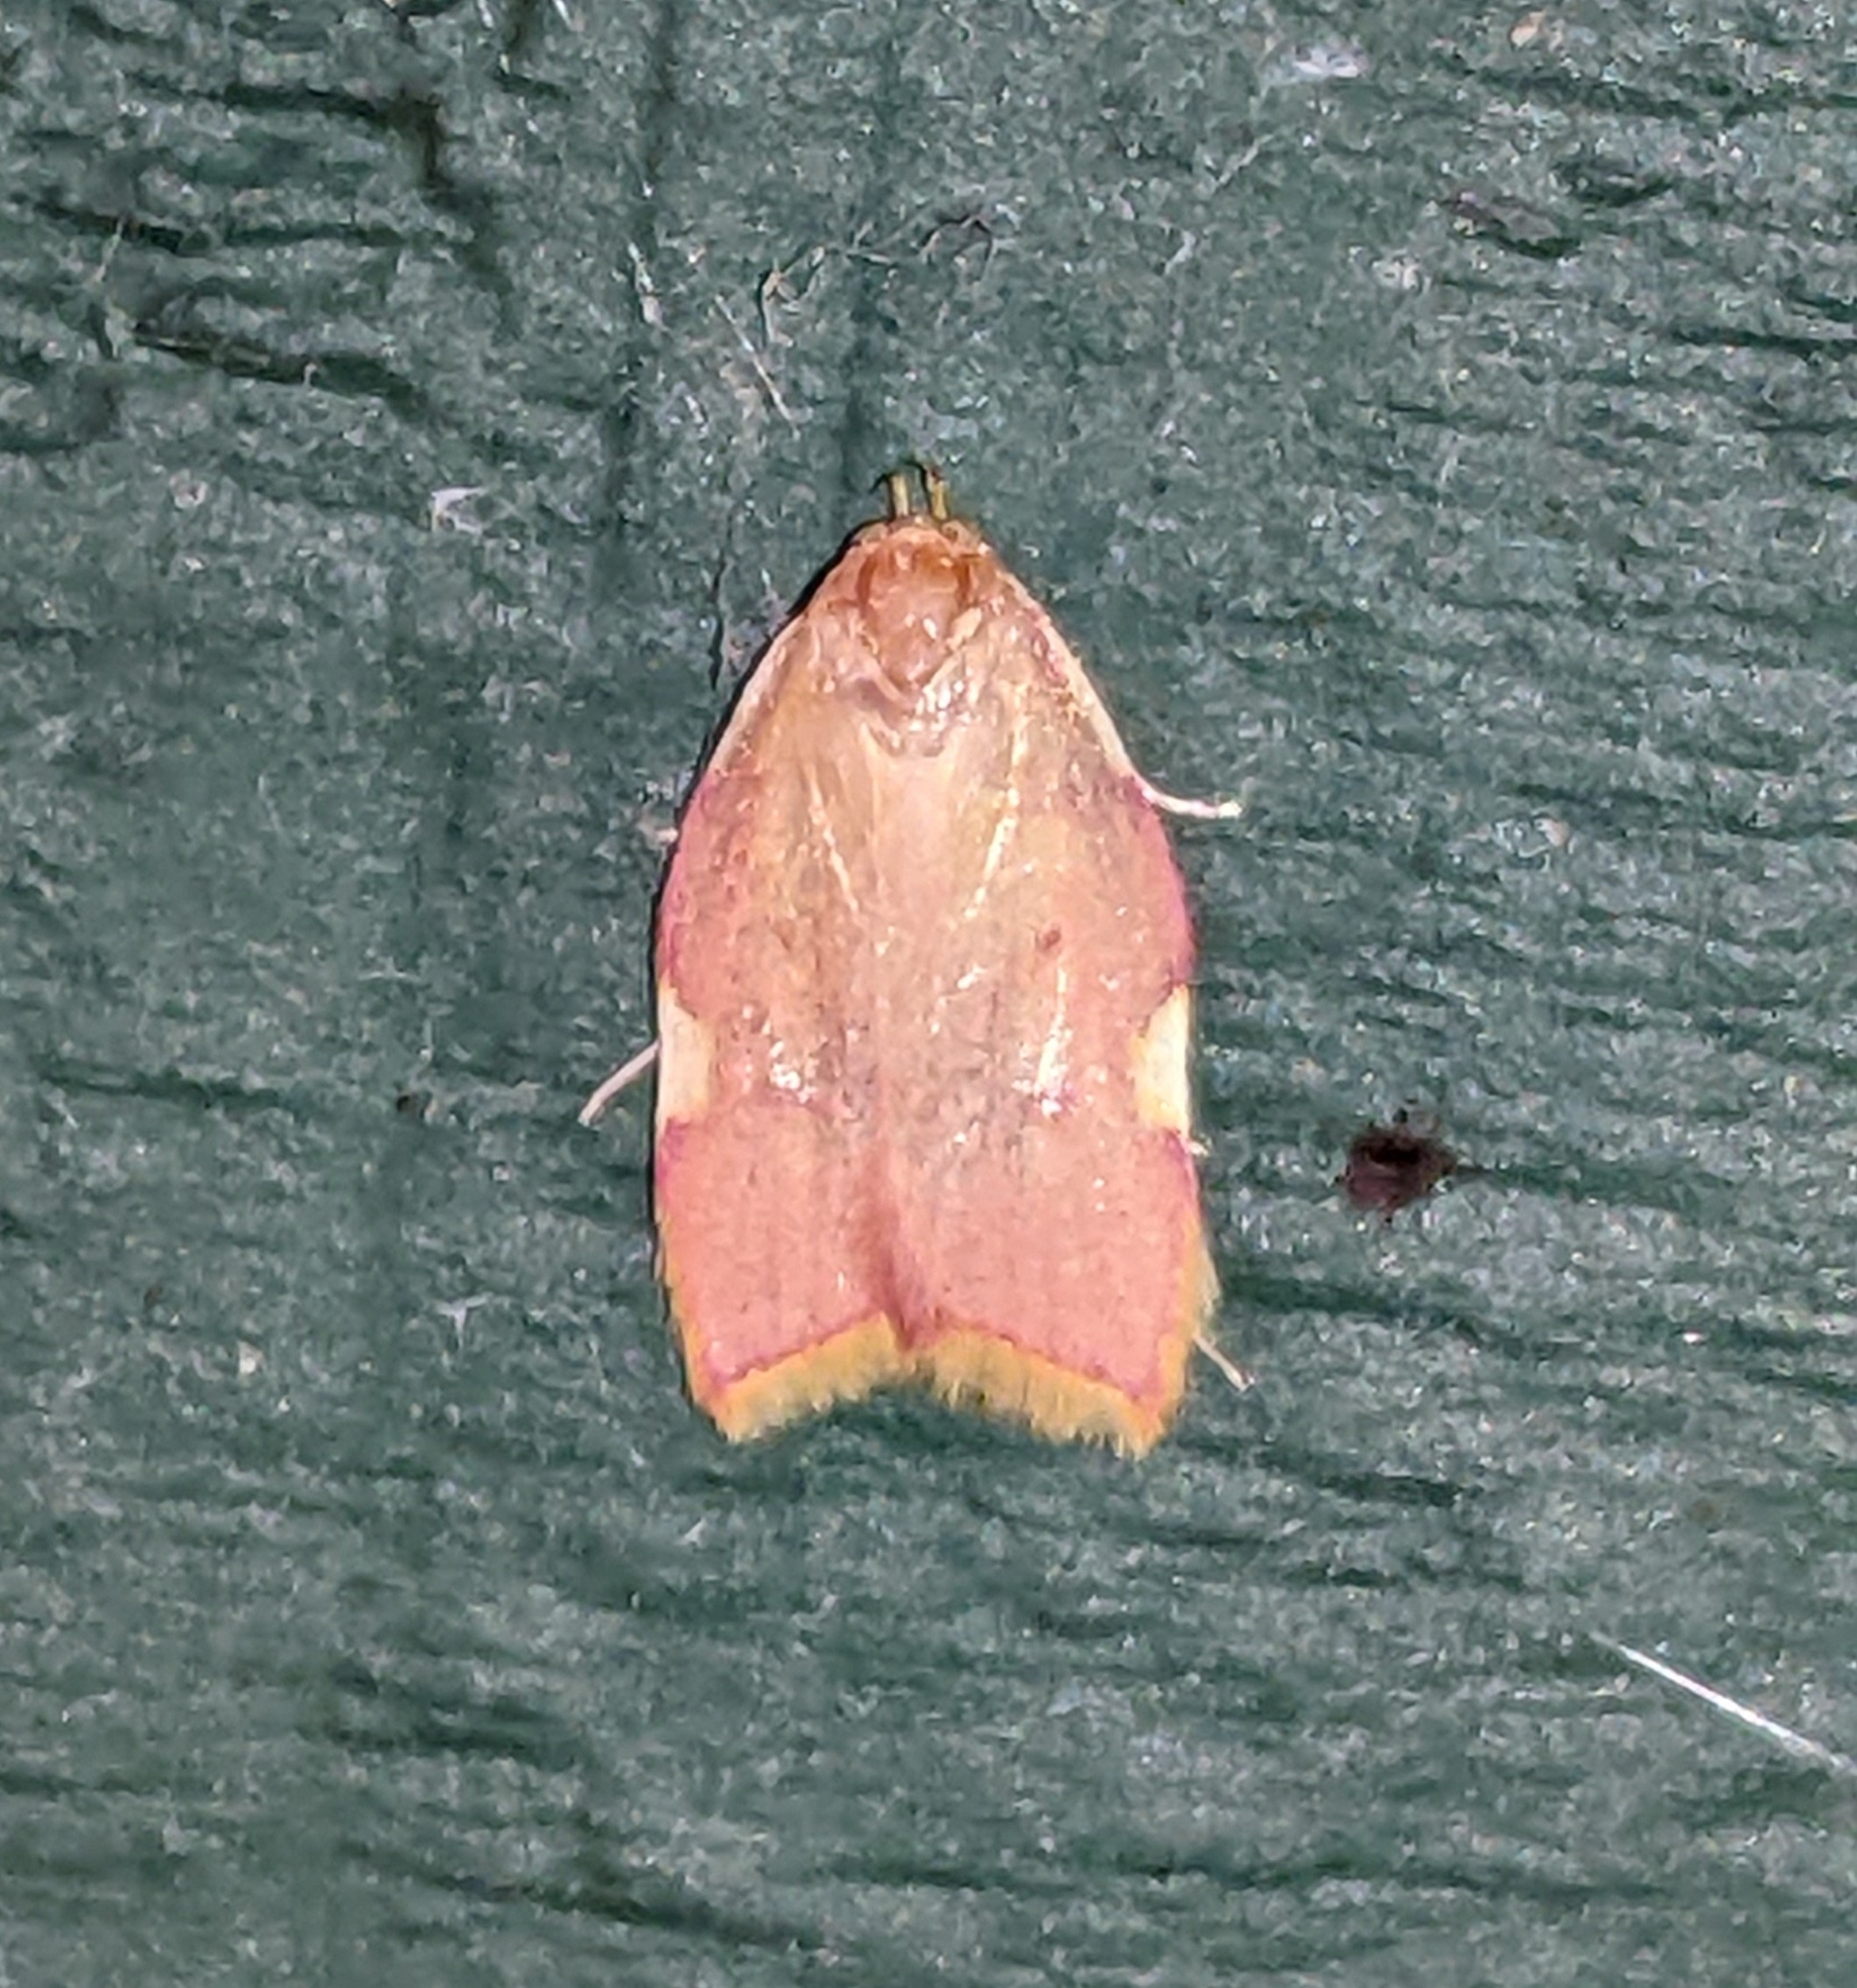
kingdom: Animalia
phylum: Arthropoda
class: Insecta
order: Lepidoptera
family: Peleopodidae
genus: Carcina
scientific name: Carcina quercana
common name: Moth
